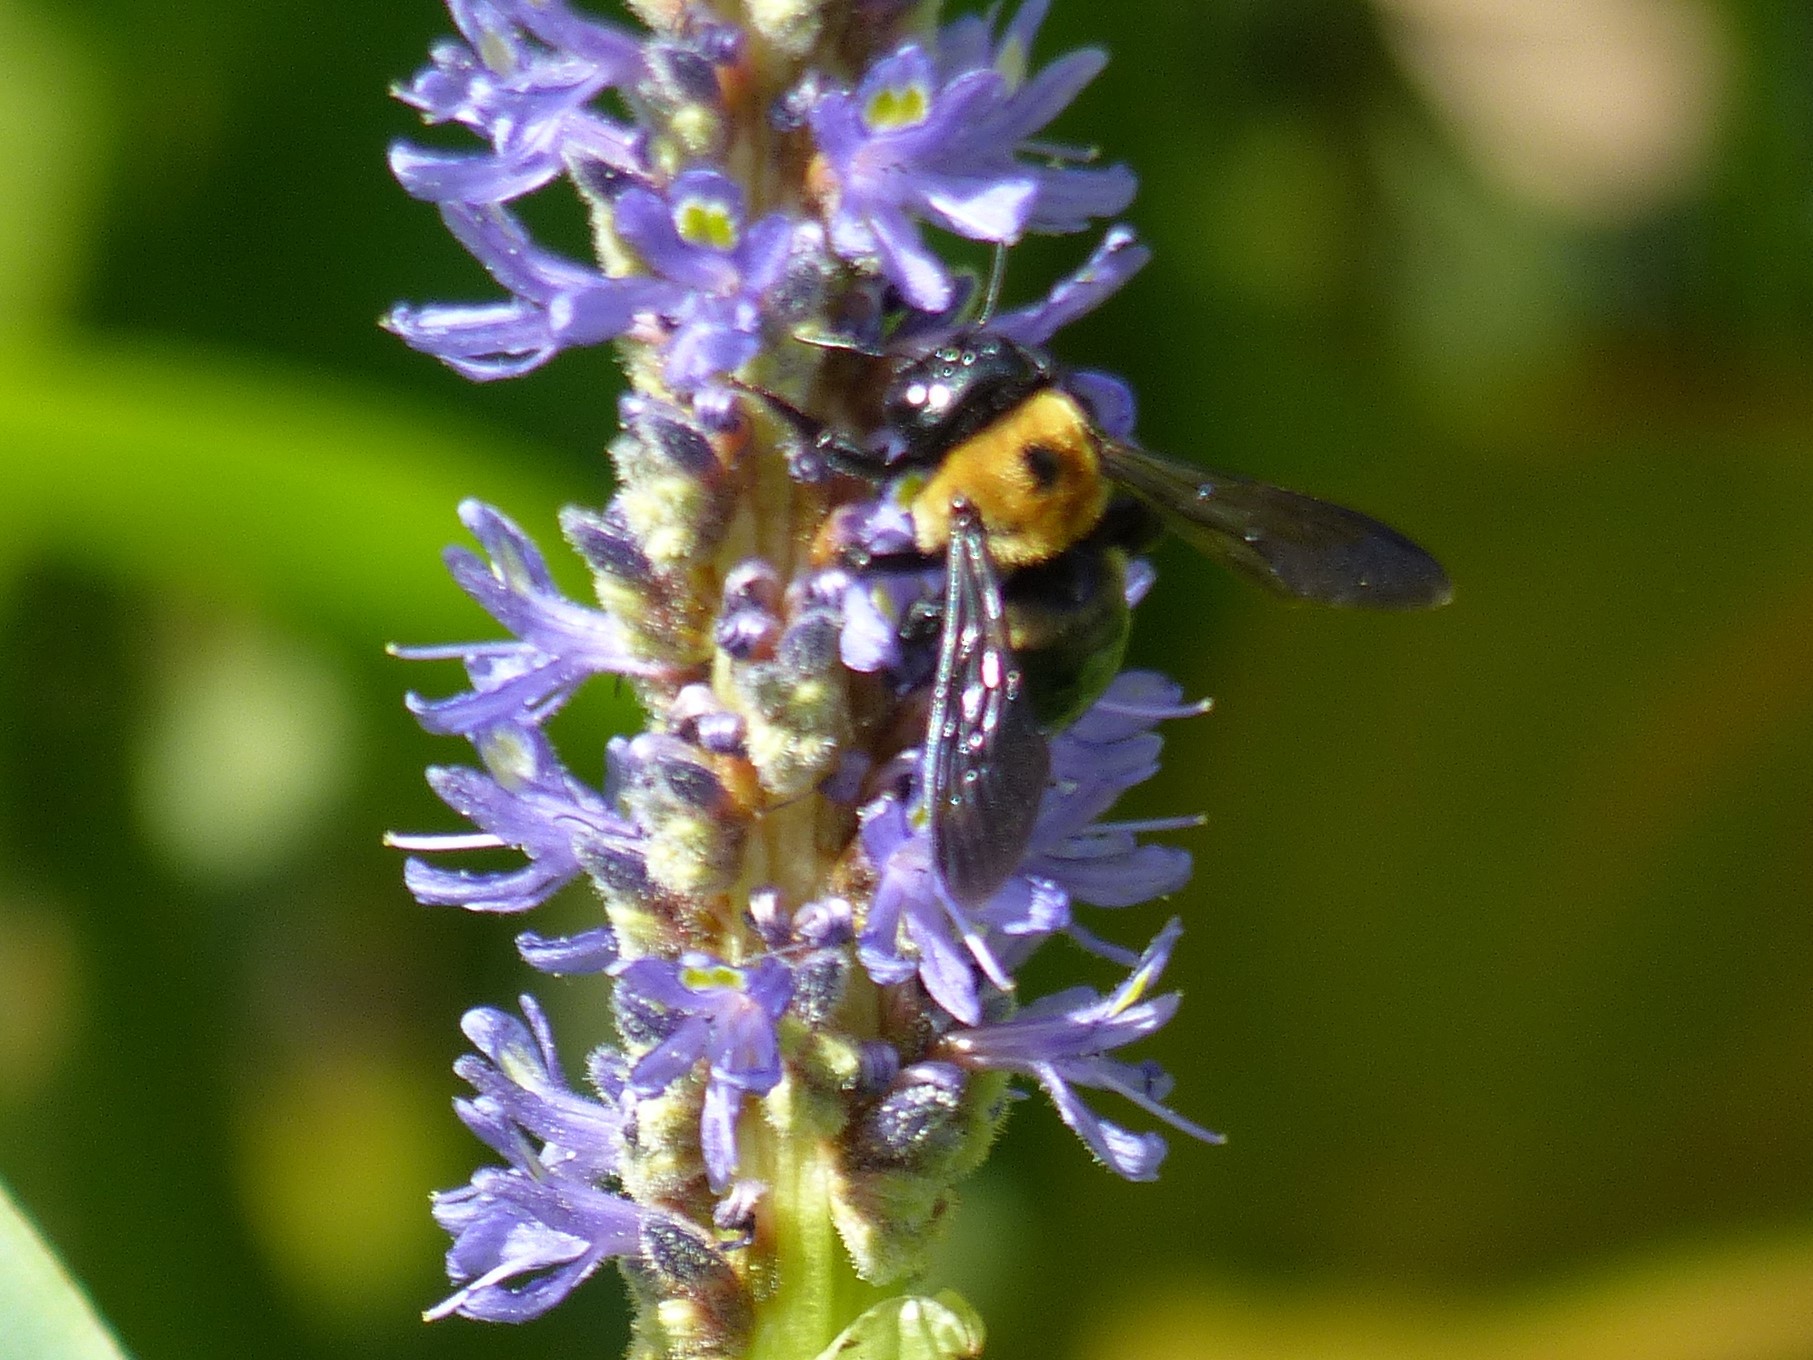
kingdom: Animalia
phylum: Arthropoda
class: Insecta
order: Hymenoptera
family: Apidae
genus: Xylocopa
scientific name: Xylocopa virginica
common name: Carpenter bee
